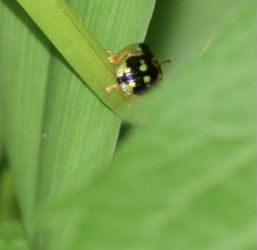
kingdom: Animalia
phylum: Arthropoda
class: Insecta
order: Coleoptera
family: Chrysomelidae
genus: Deloyala
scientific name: Deloyala guttata
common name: Mottled tortoise beetle
